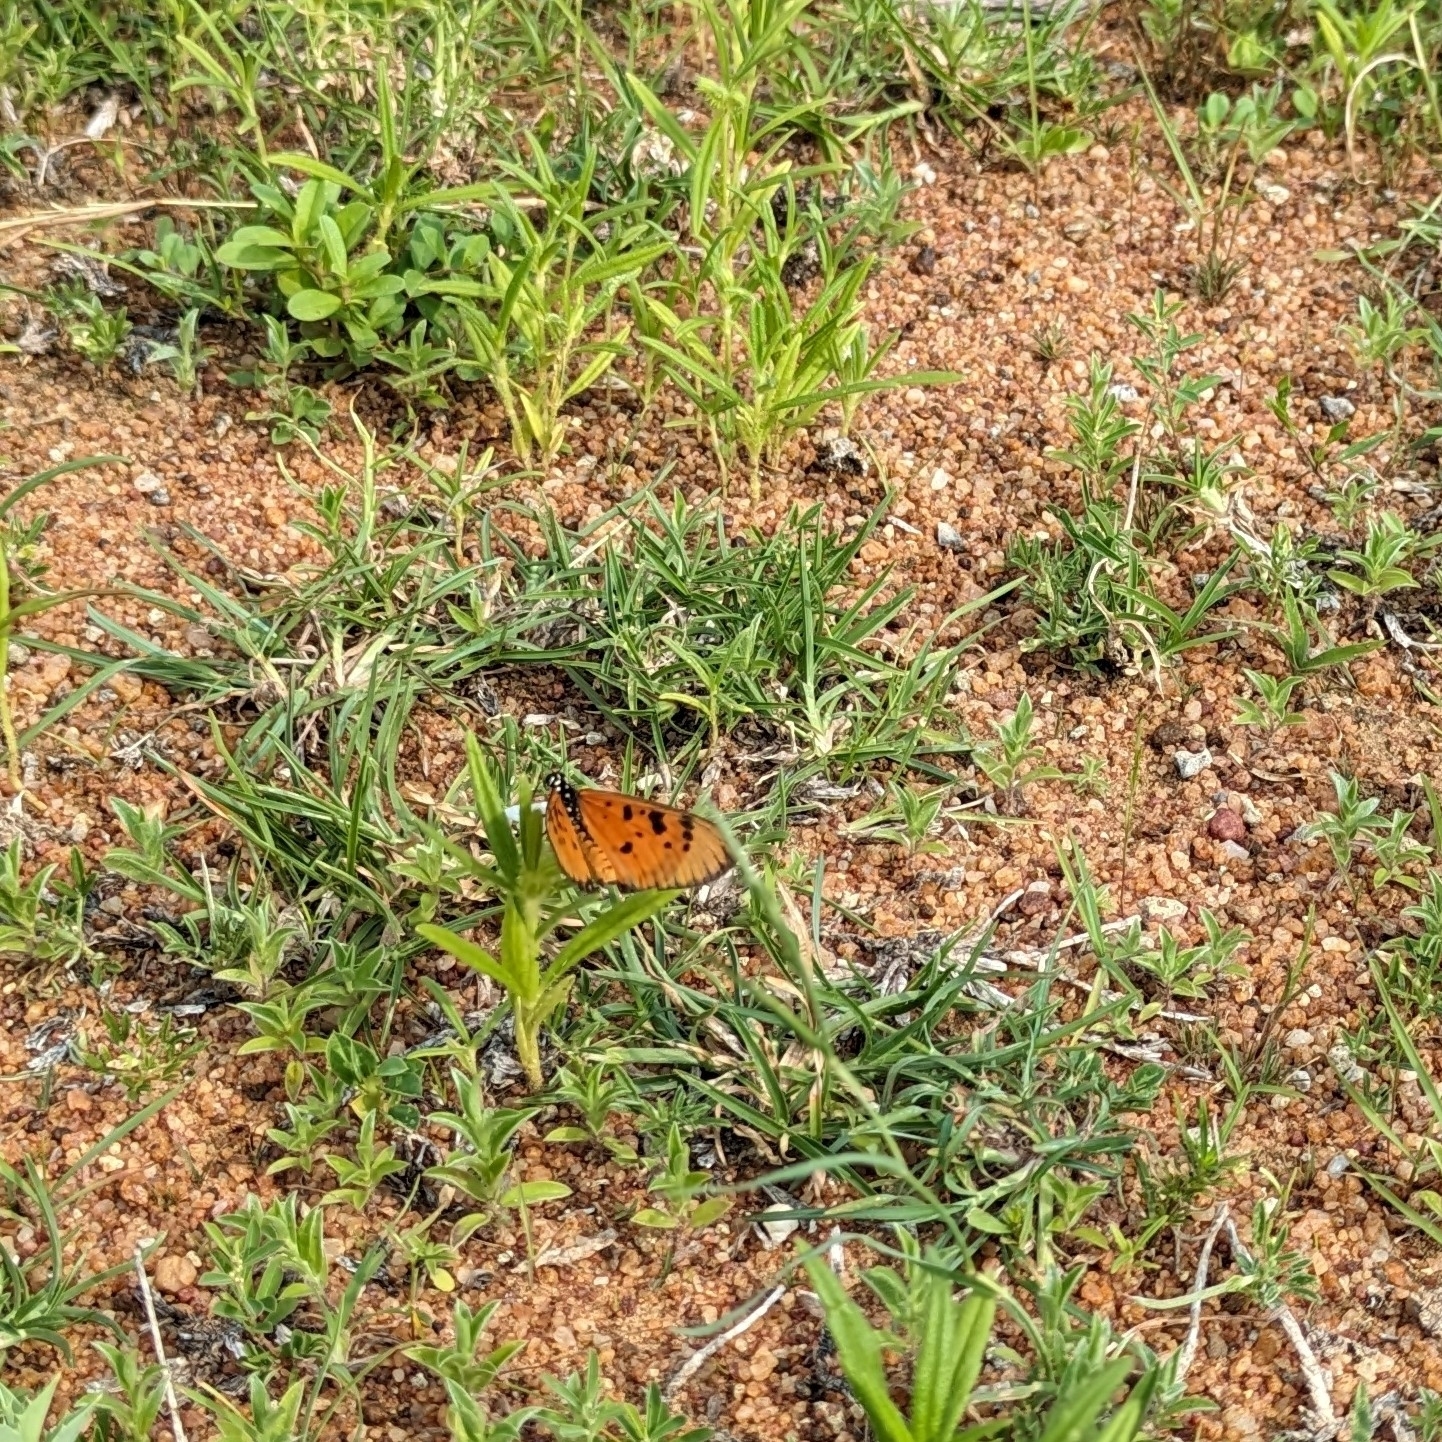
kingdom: Animalia
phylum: Arthropoda
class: Insecta
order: Lepidoptera
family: Nymphalidae
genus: Acraea
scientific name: Acraea terpsicore
